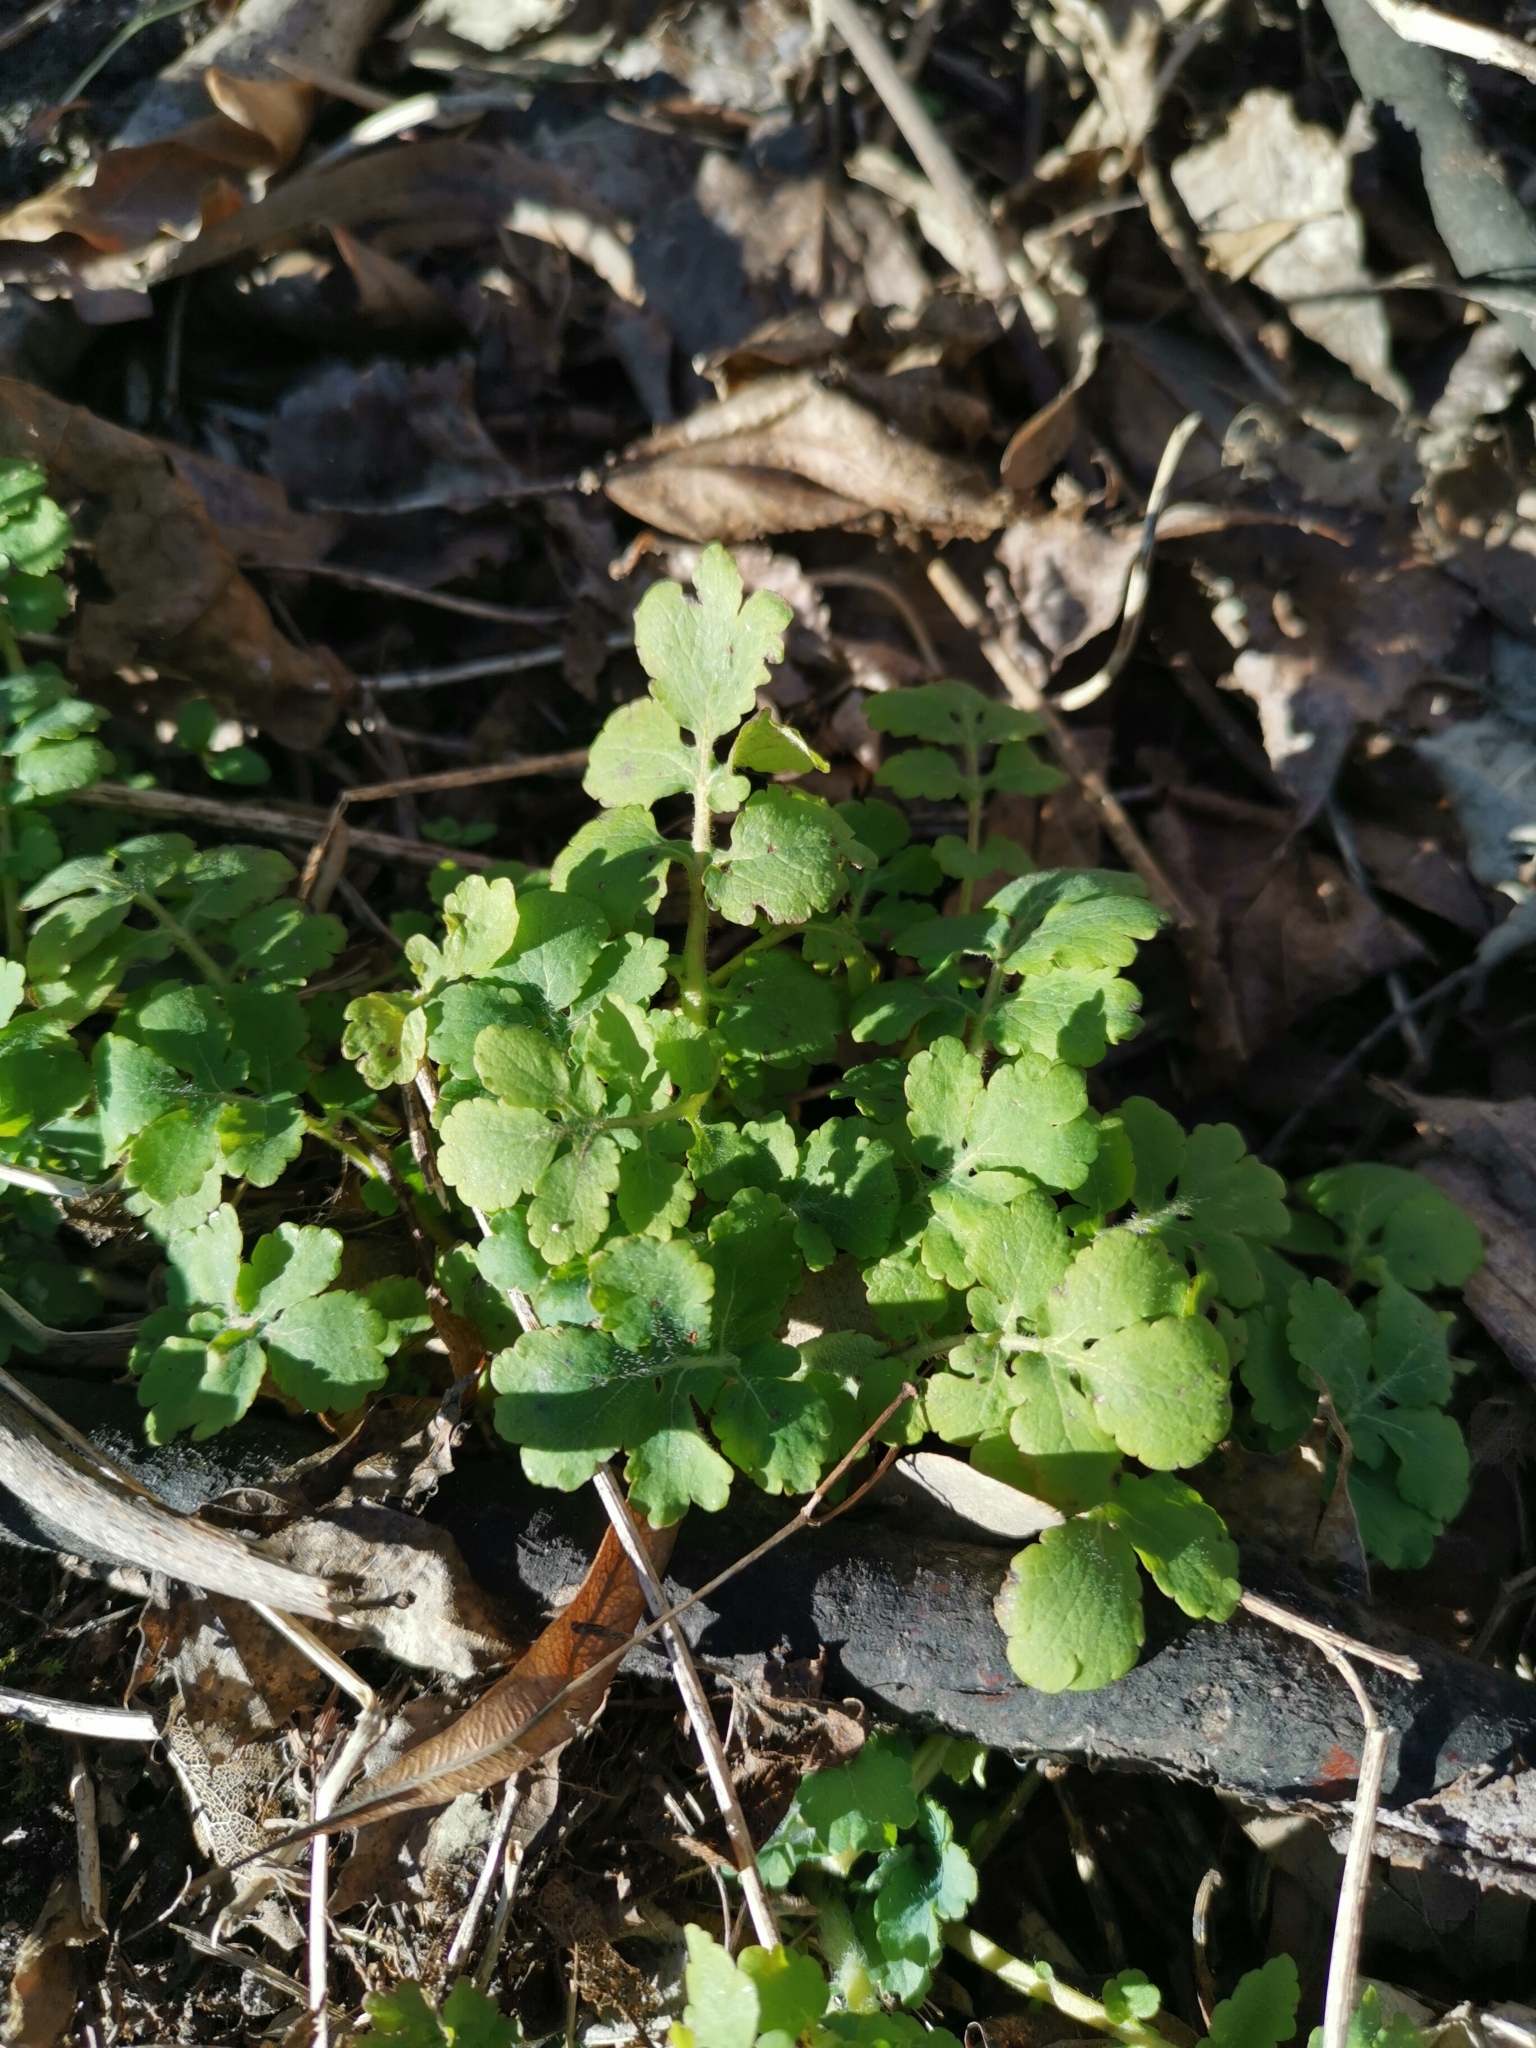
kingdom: Plantae
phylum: Tracheophyta
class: Magnoliopsida
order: Ranunculales
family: Papaveraceae
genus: Chelidonium
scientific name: Chelidonium majus
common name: Greater celandine
